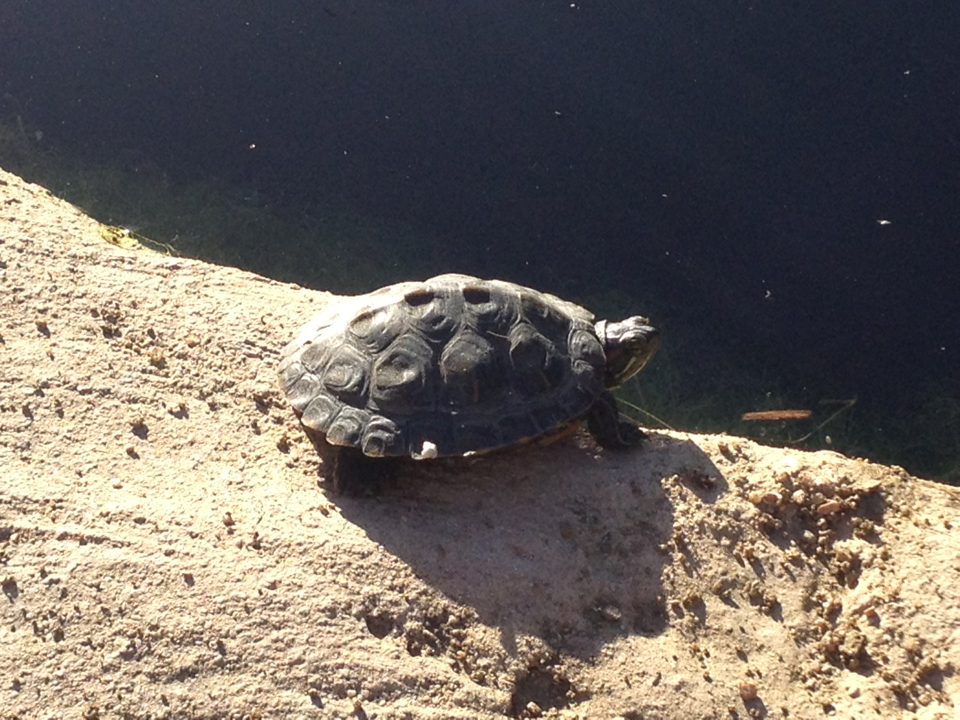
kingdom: Animalia
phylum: Chordata
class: Testudines
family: Emydidae
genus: Trachemys
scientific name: Trachemys scripta
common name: Slider
